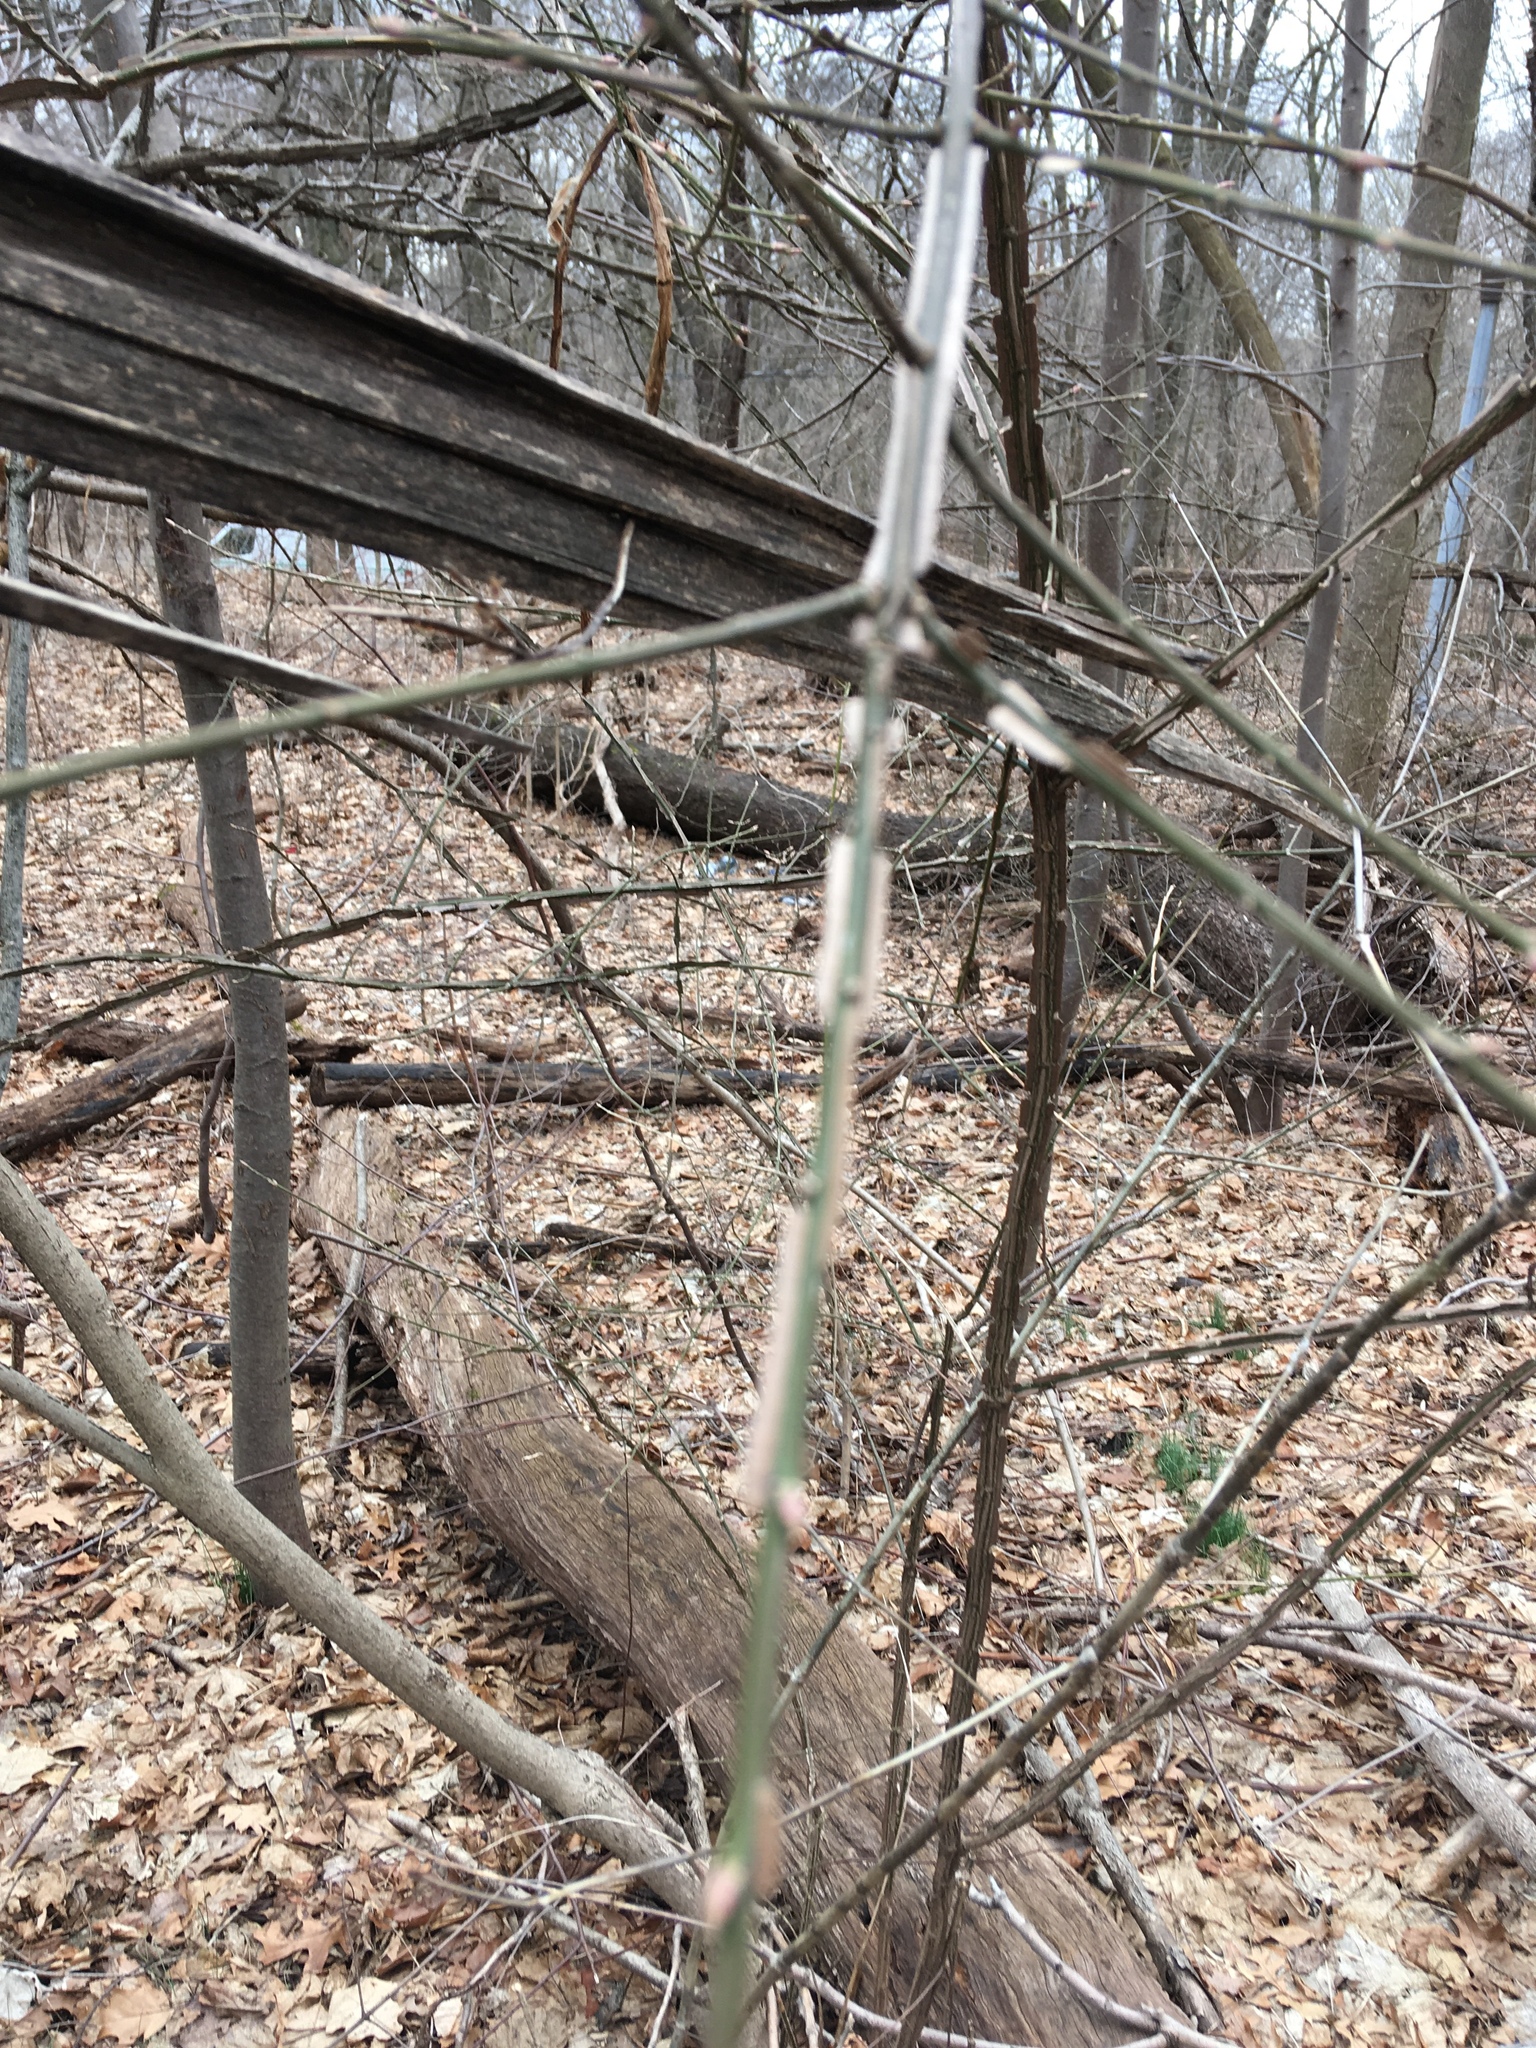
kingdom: Plantae
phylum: Tracheophyta
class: Magnoliopsida
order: Celastrales
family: Celastraceae
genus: Euonymus
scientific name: Euonymus alatus
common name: Winged euonymus
